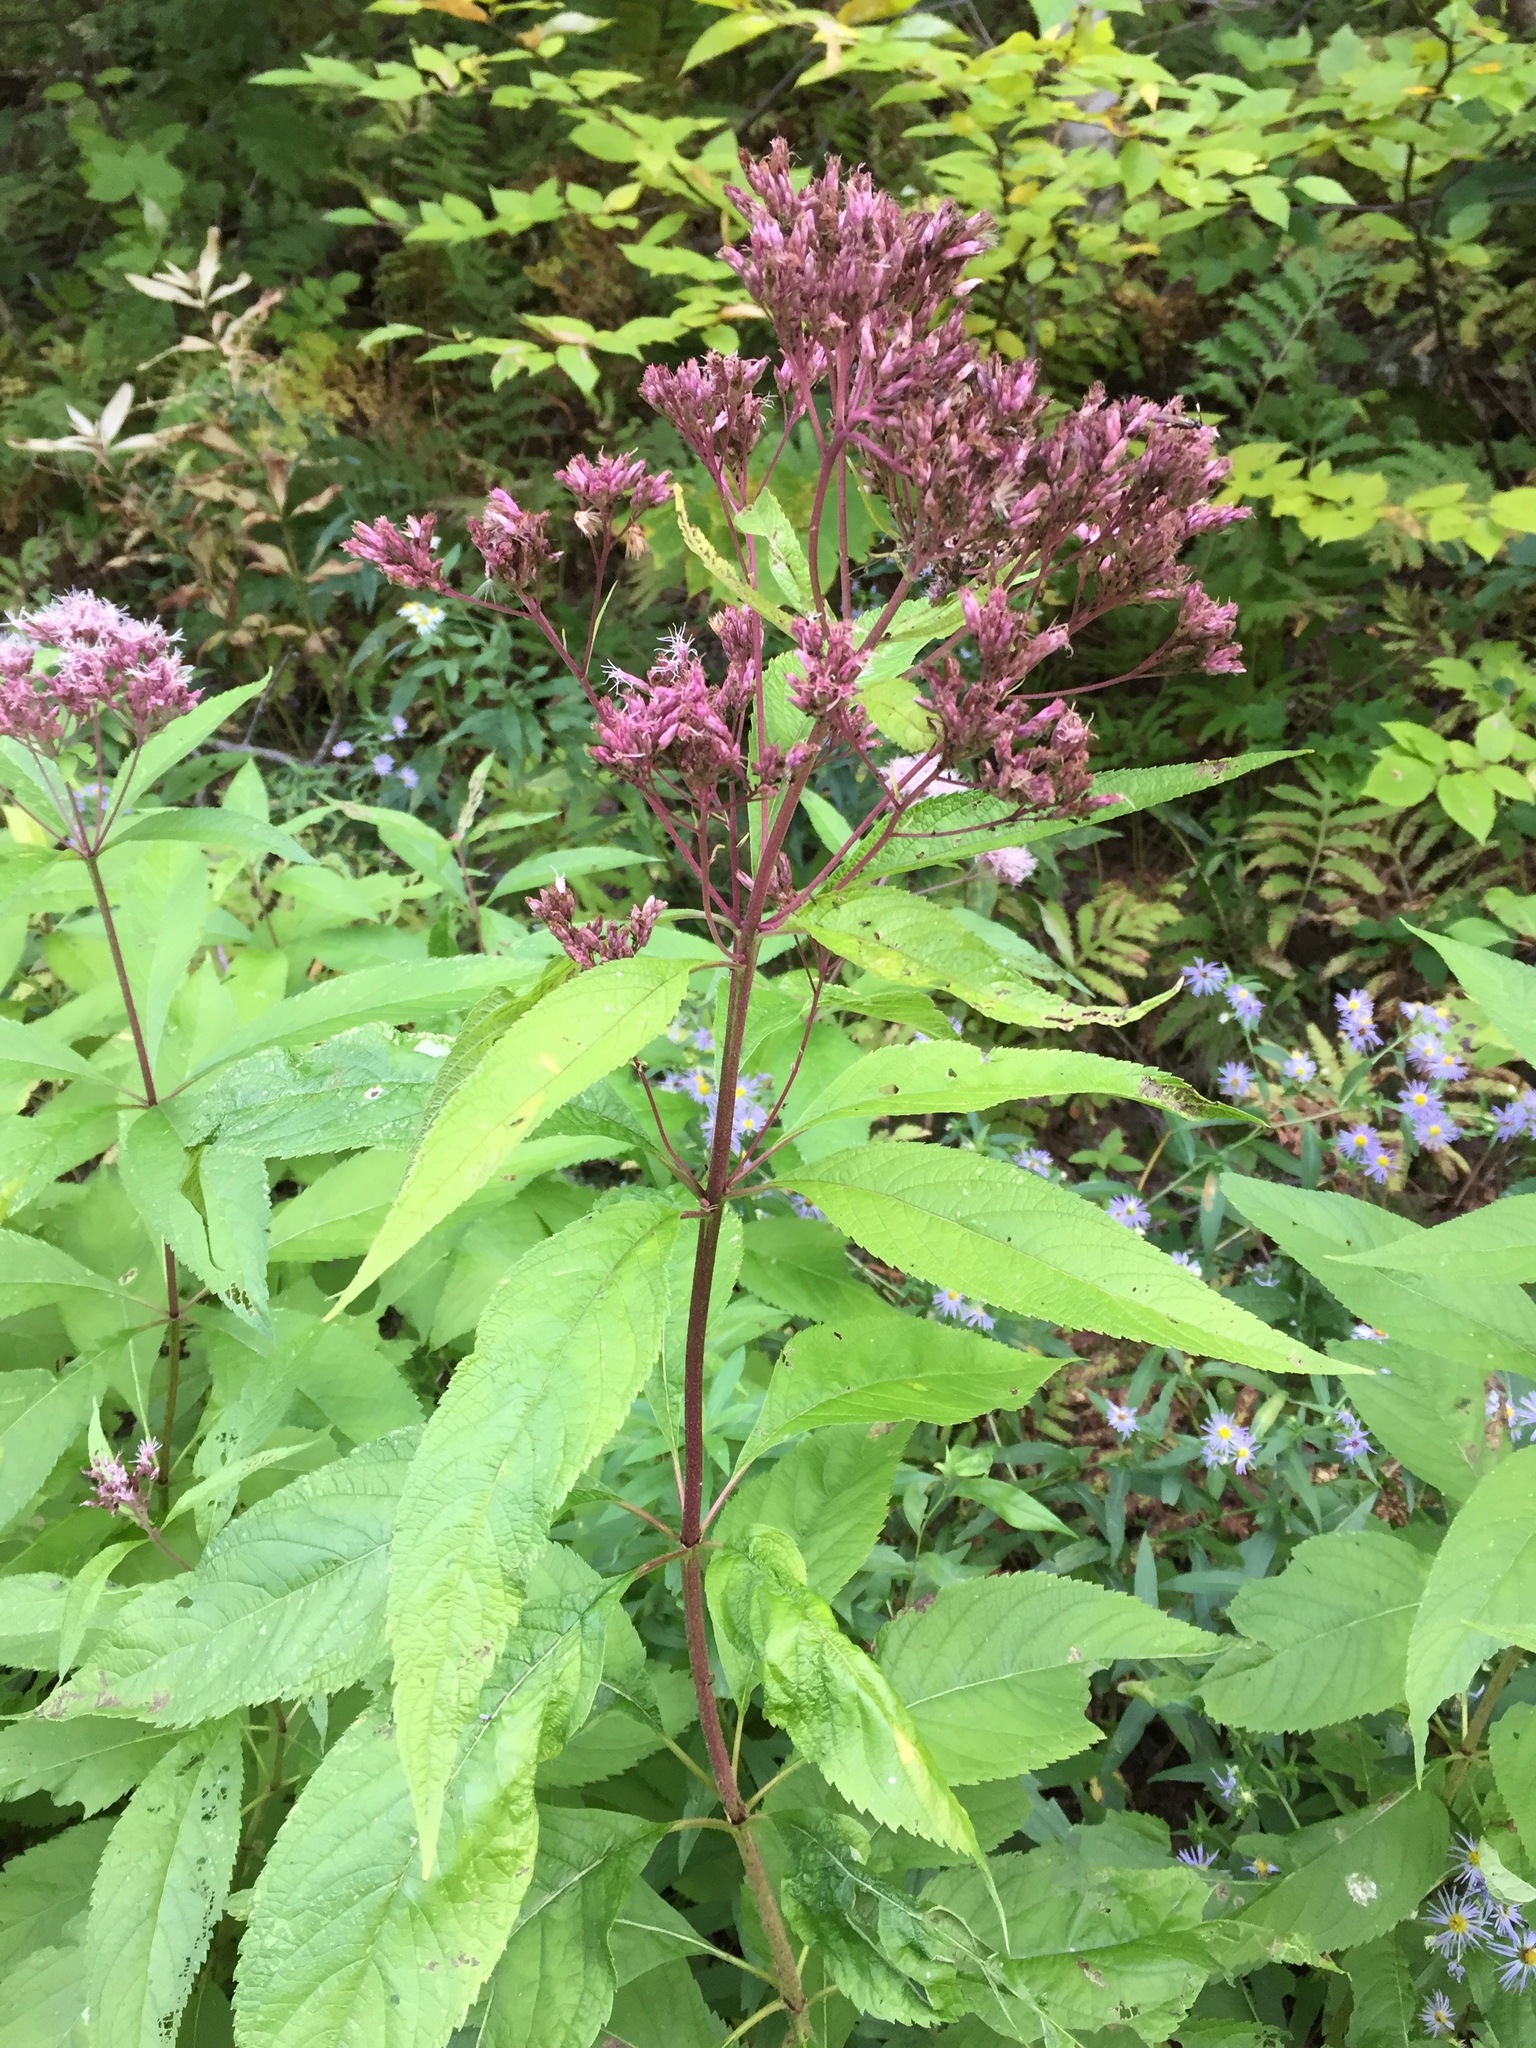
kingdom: Plantae
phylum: Tracheophyta
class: Magnoliopsida
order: Asterales
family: Asteraceae
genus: Eutrochium
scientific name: Eutrochium maculatum
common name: Spotted joe pye weed
